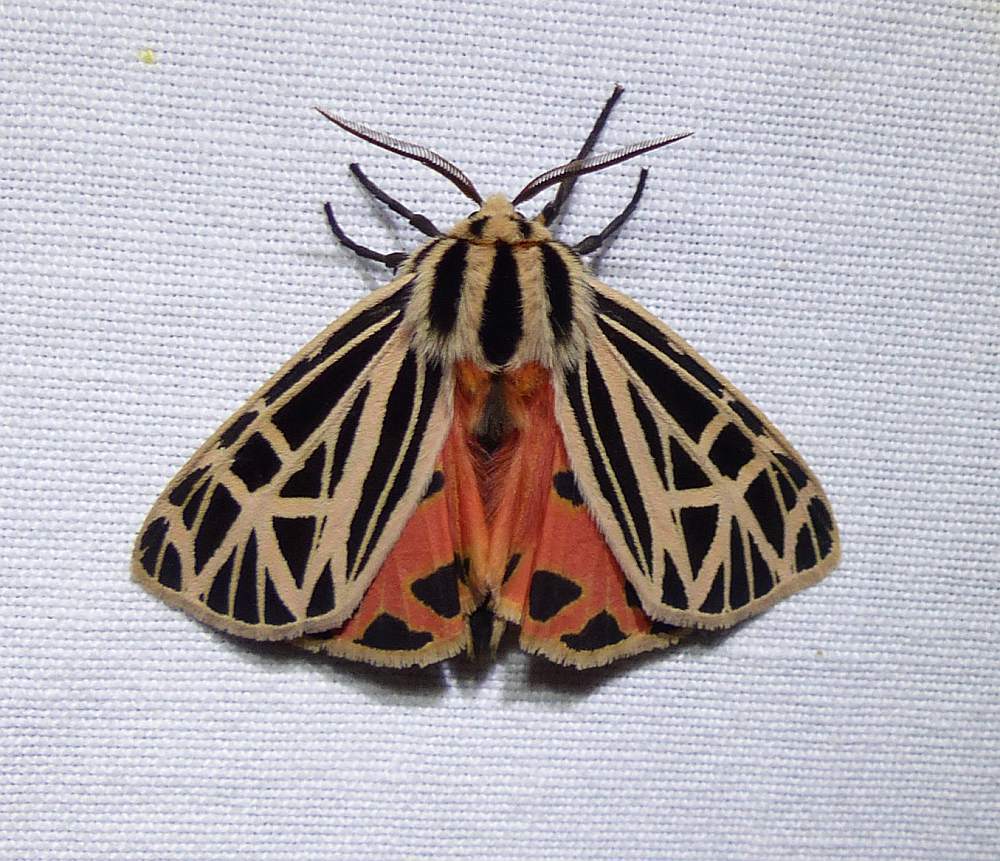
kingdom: Animalia
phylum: Arthropoda
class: Insecta
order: Lepidoptera
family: Erebidae
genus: Grammia
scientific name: Grammia virgo
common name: Virgin tiger moth
